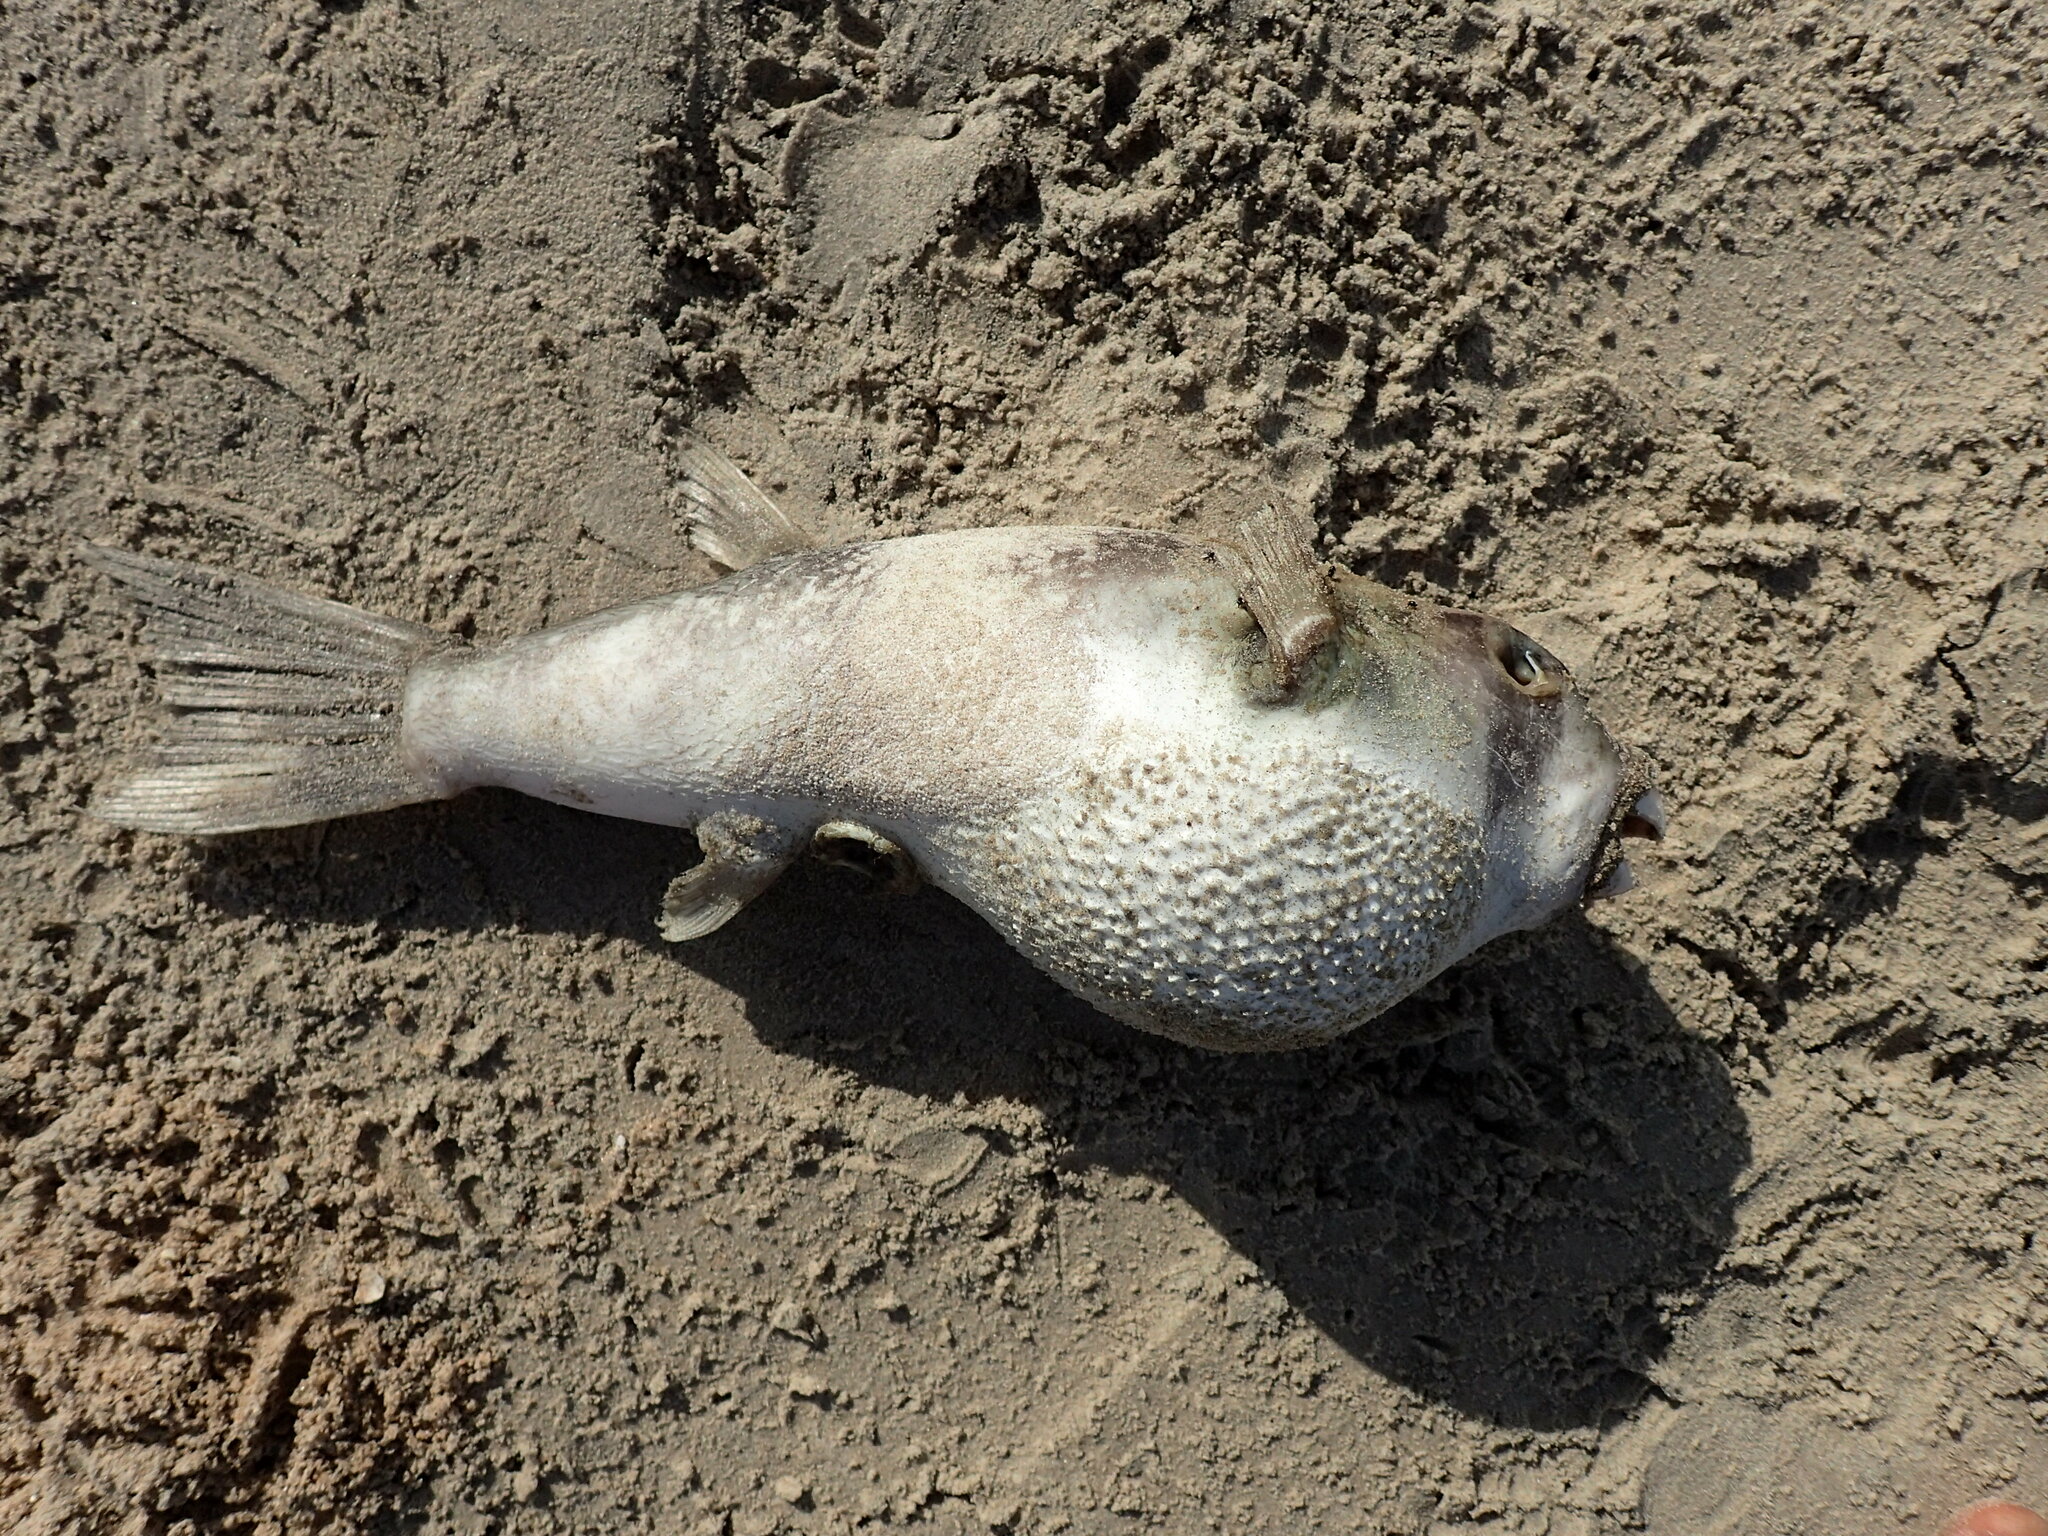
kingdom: Animalia
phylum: Chordata
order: Tetraodontiformes
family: Tetraodontidae
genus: Ephippion
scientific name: Ephippion guttifer
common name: Common puffer
